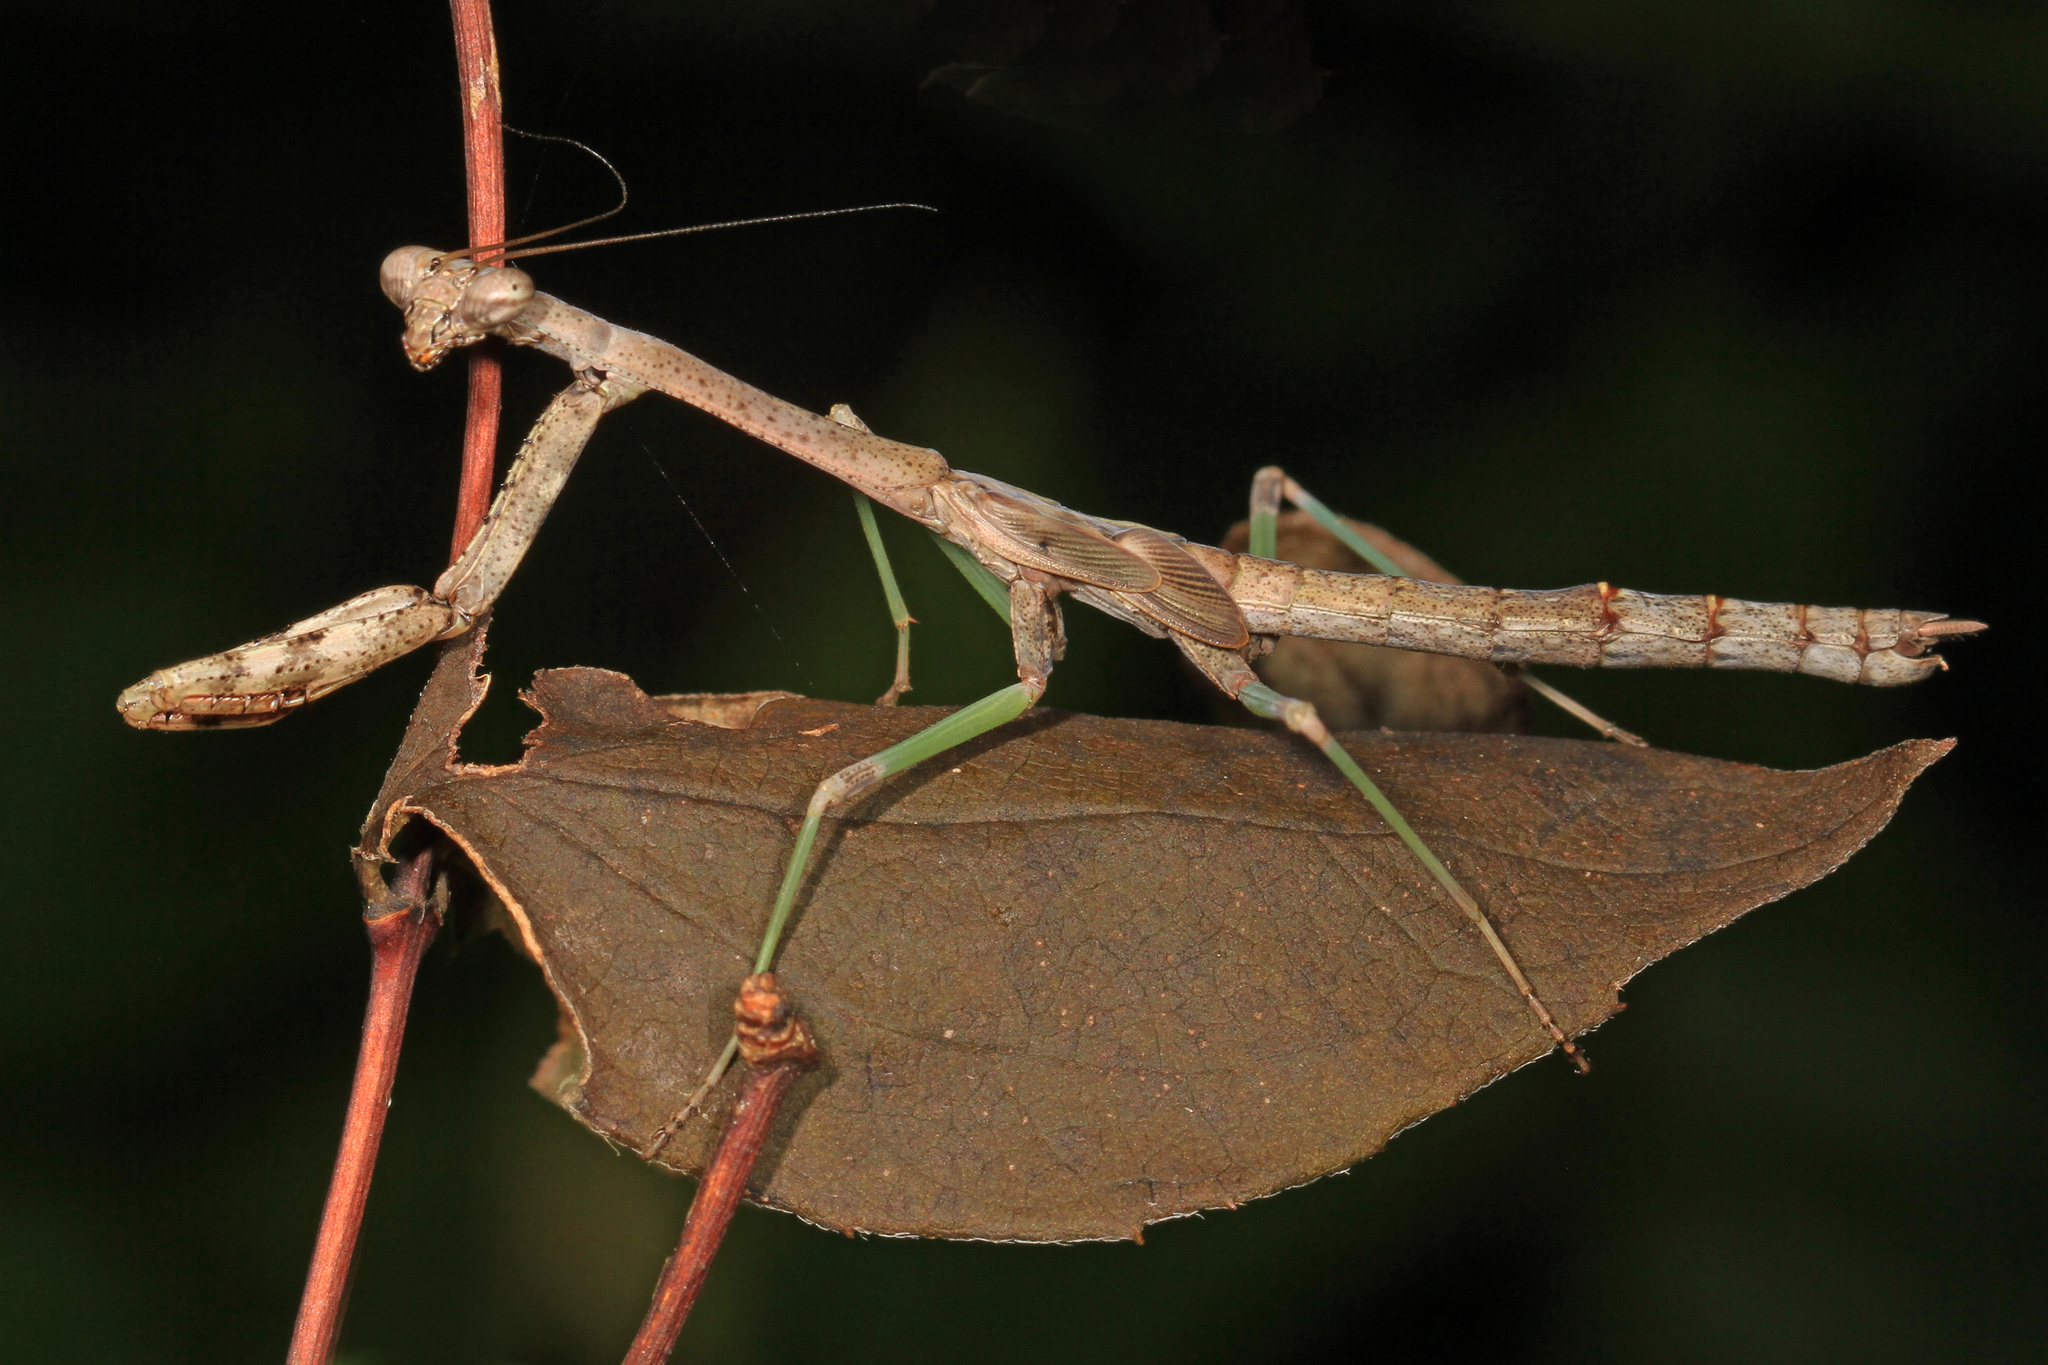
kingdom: Animalia
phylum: Arthropoda
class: Insecta
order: Mantodea
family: Mantidae
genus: Stagmomantis
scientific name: Stagmomantis carolina
